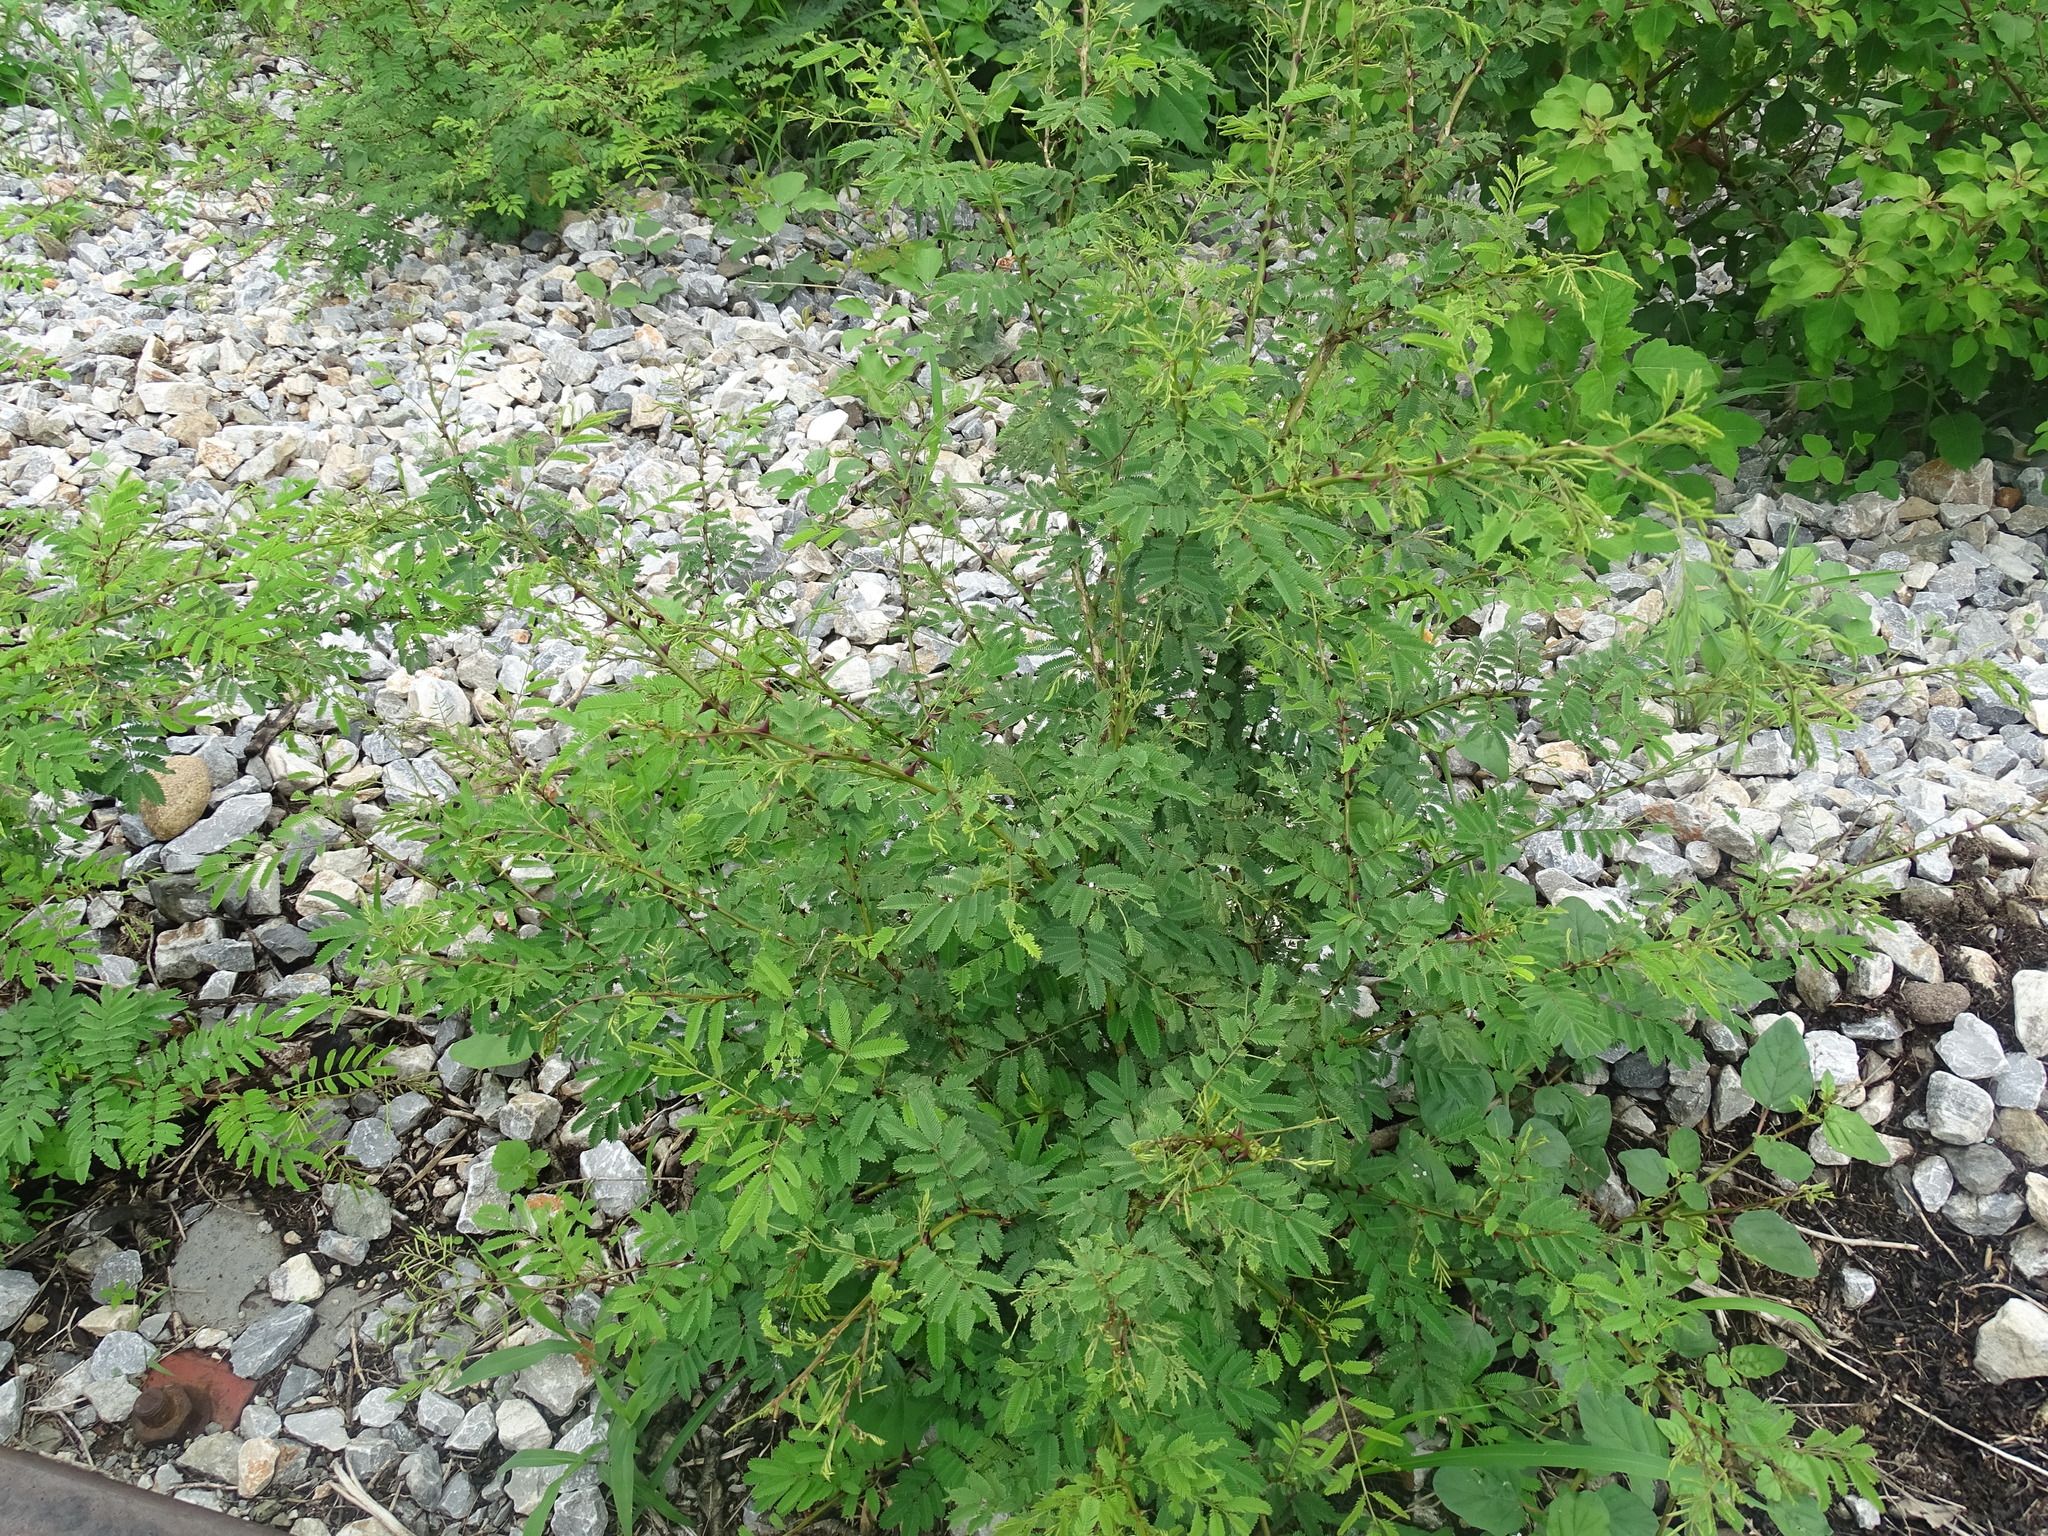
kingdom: Plantae
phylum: Tracheophyta
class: Magnoliopsida
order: Fabales
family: Fabaceae
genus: Mimosa
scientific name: Mimosa acantholoba
